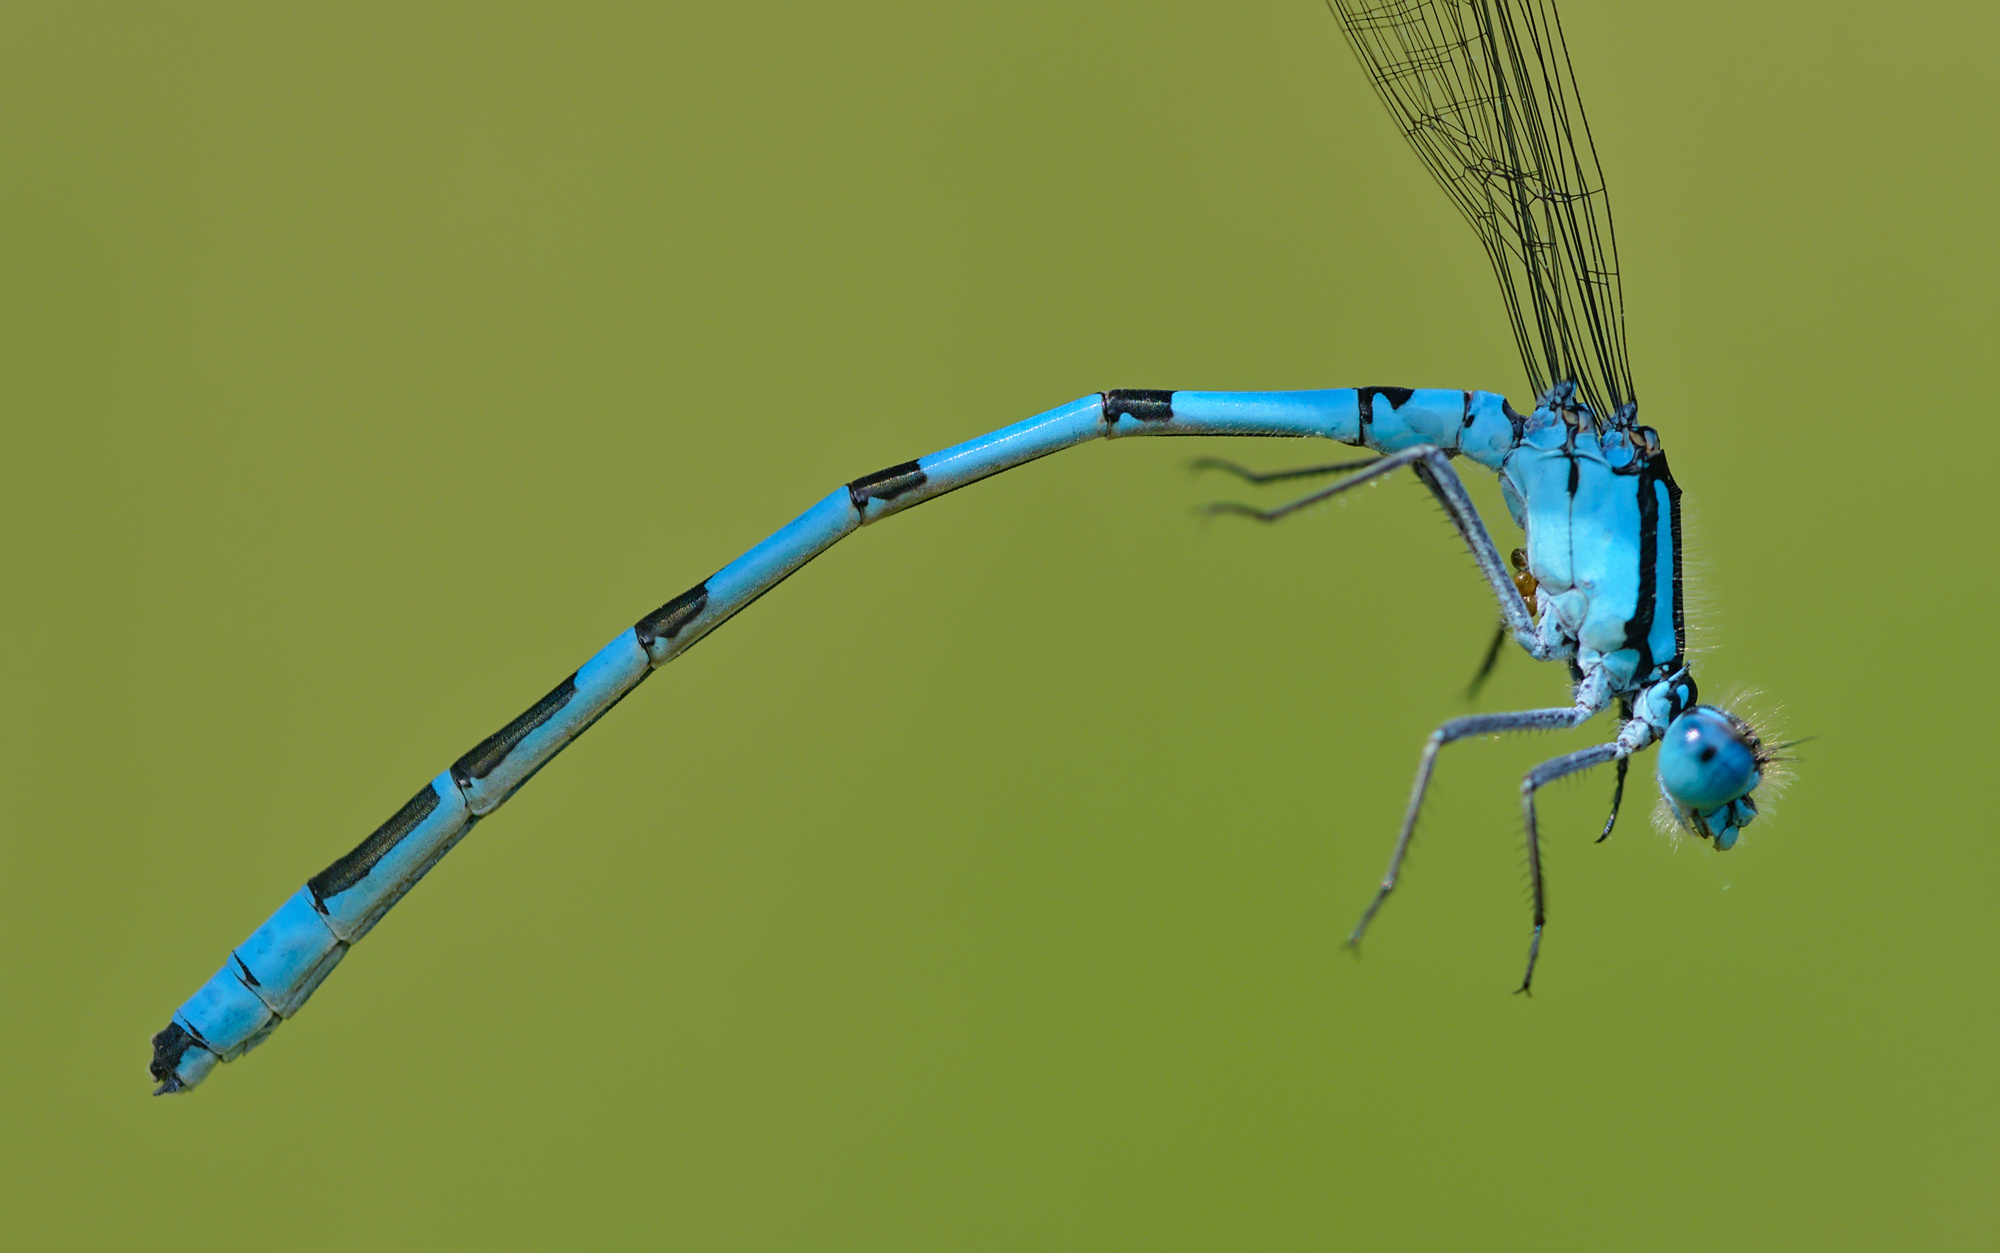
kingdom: Animalia
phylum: Arthropoda
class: Insecta
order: Odonata
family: Coenagrionidae
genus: Enallagma
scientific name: Enallagma cyathigerum
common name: Common blue damselfly
